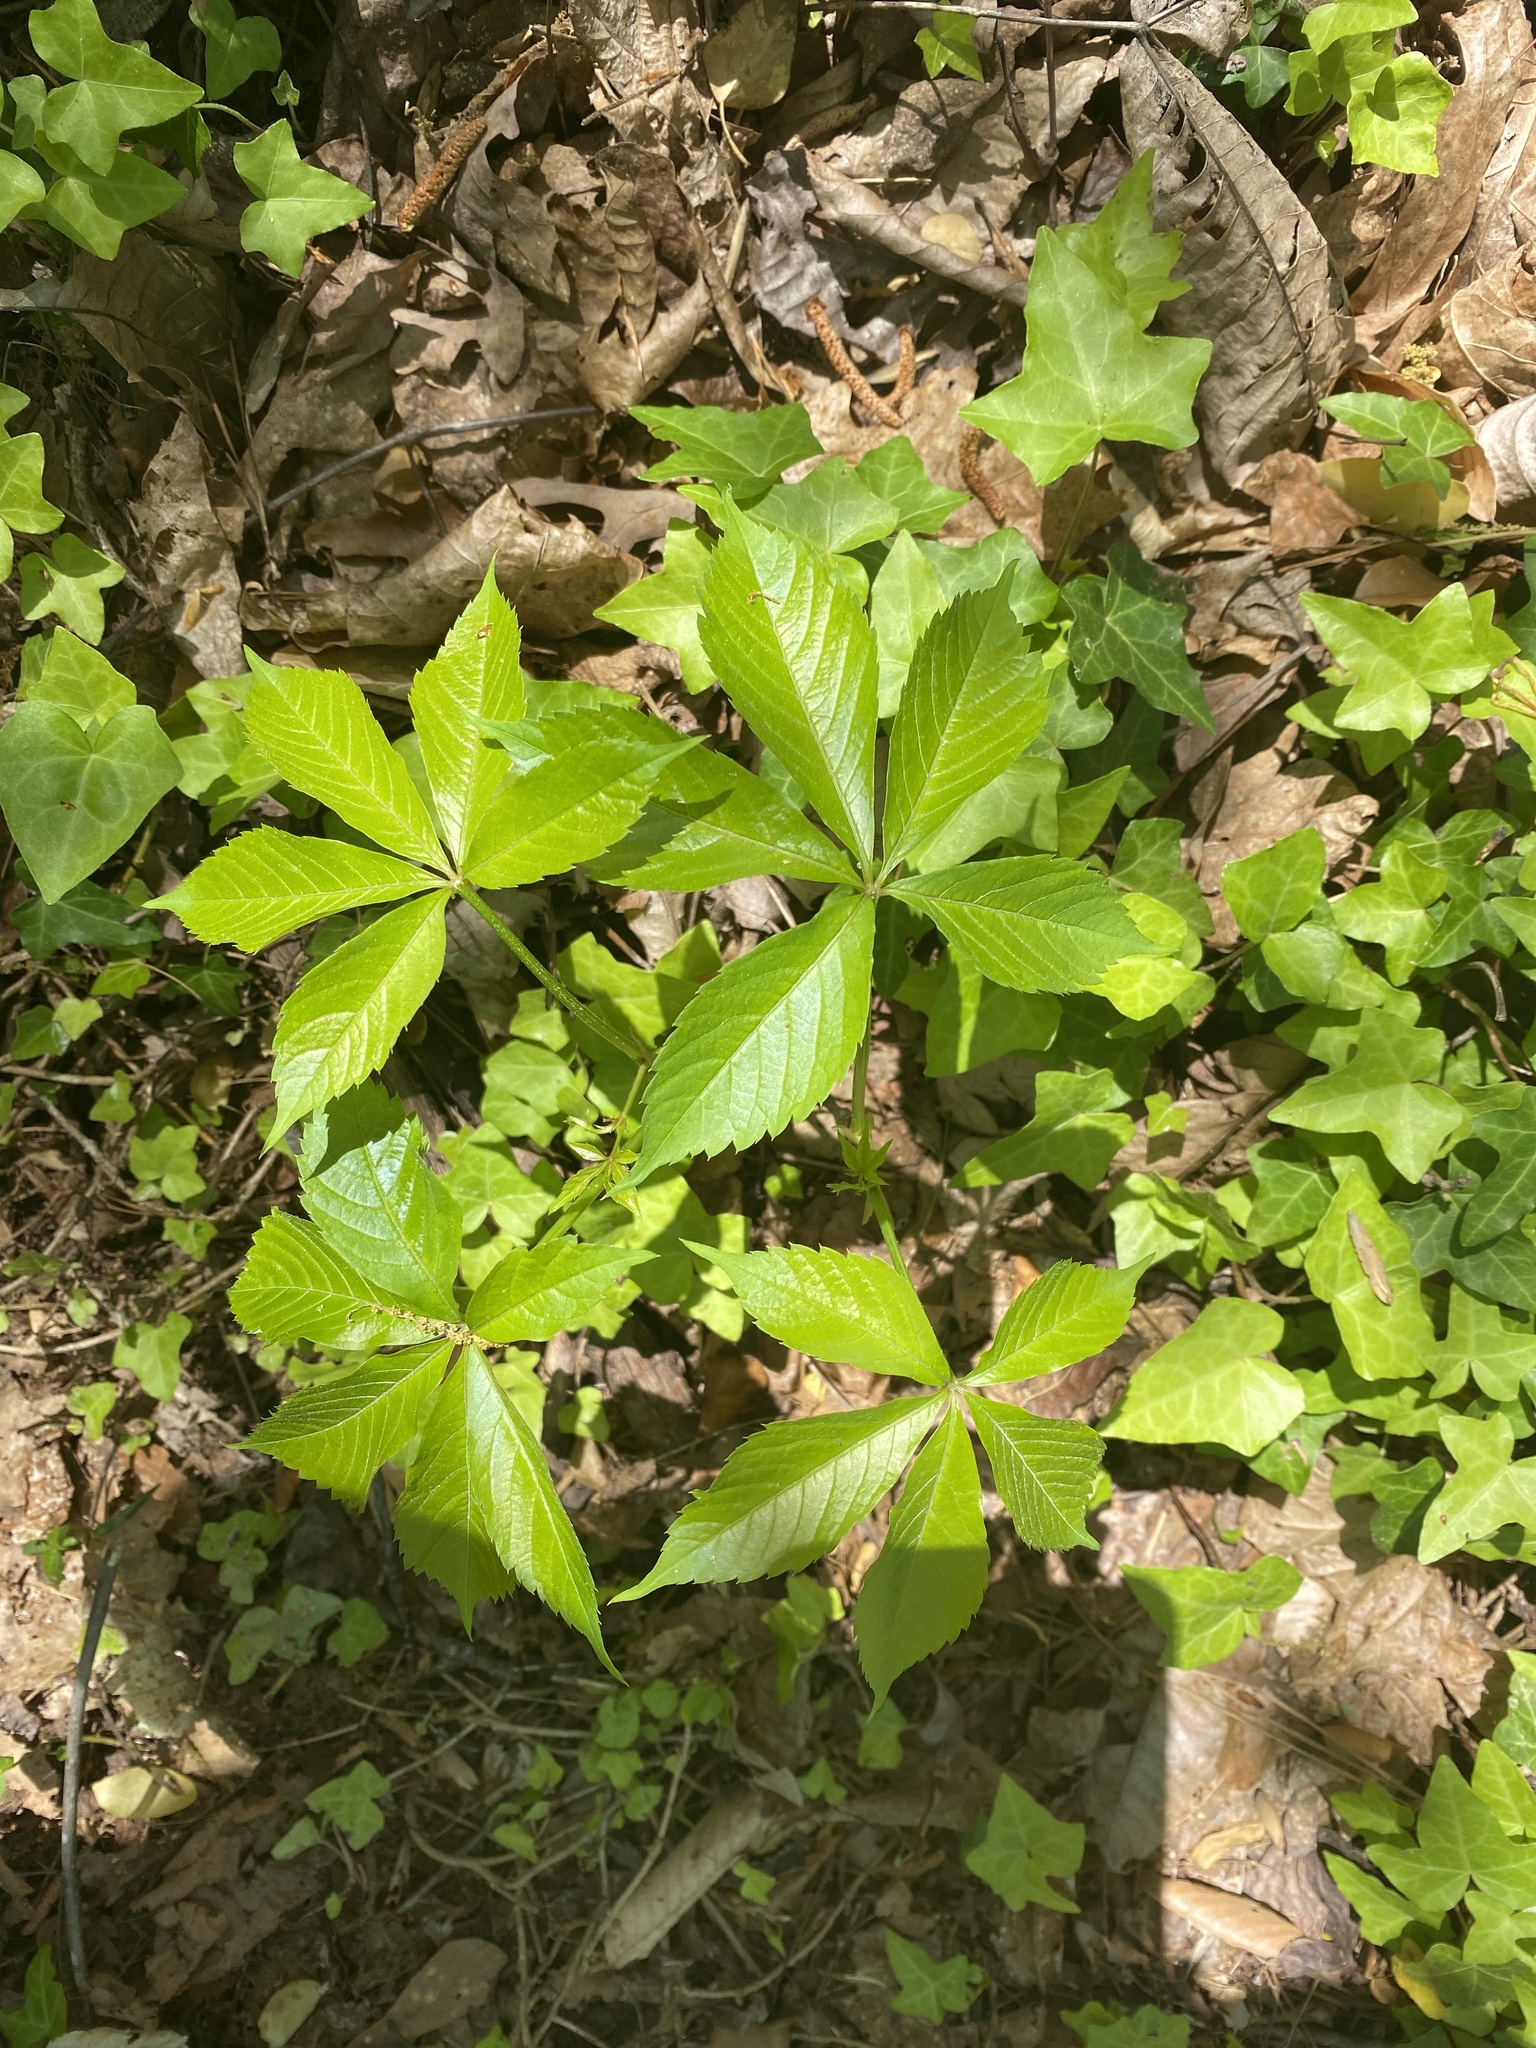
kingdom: Plantae
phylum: Tracheophyta
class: Magnoliopsida
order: Vitales
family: Vitaceae
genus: Parthenocissus
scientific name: Parthenocissus quinquefolia
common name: Virginia-creeper
